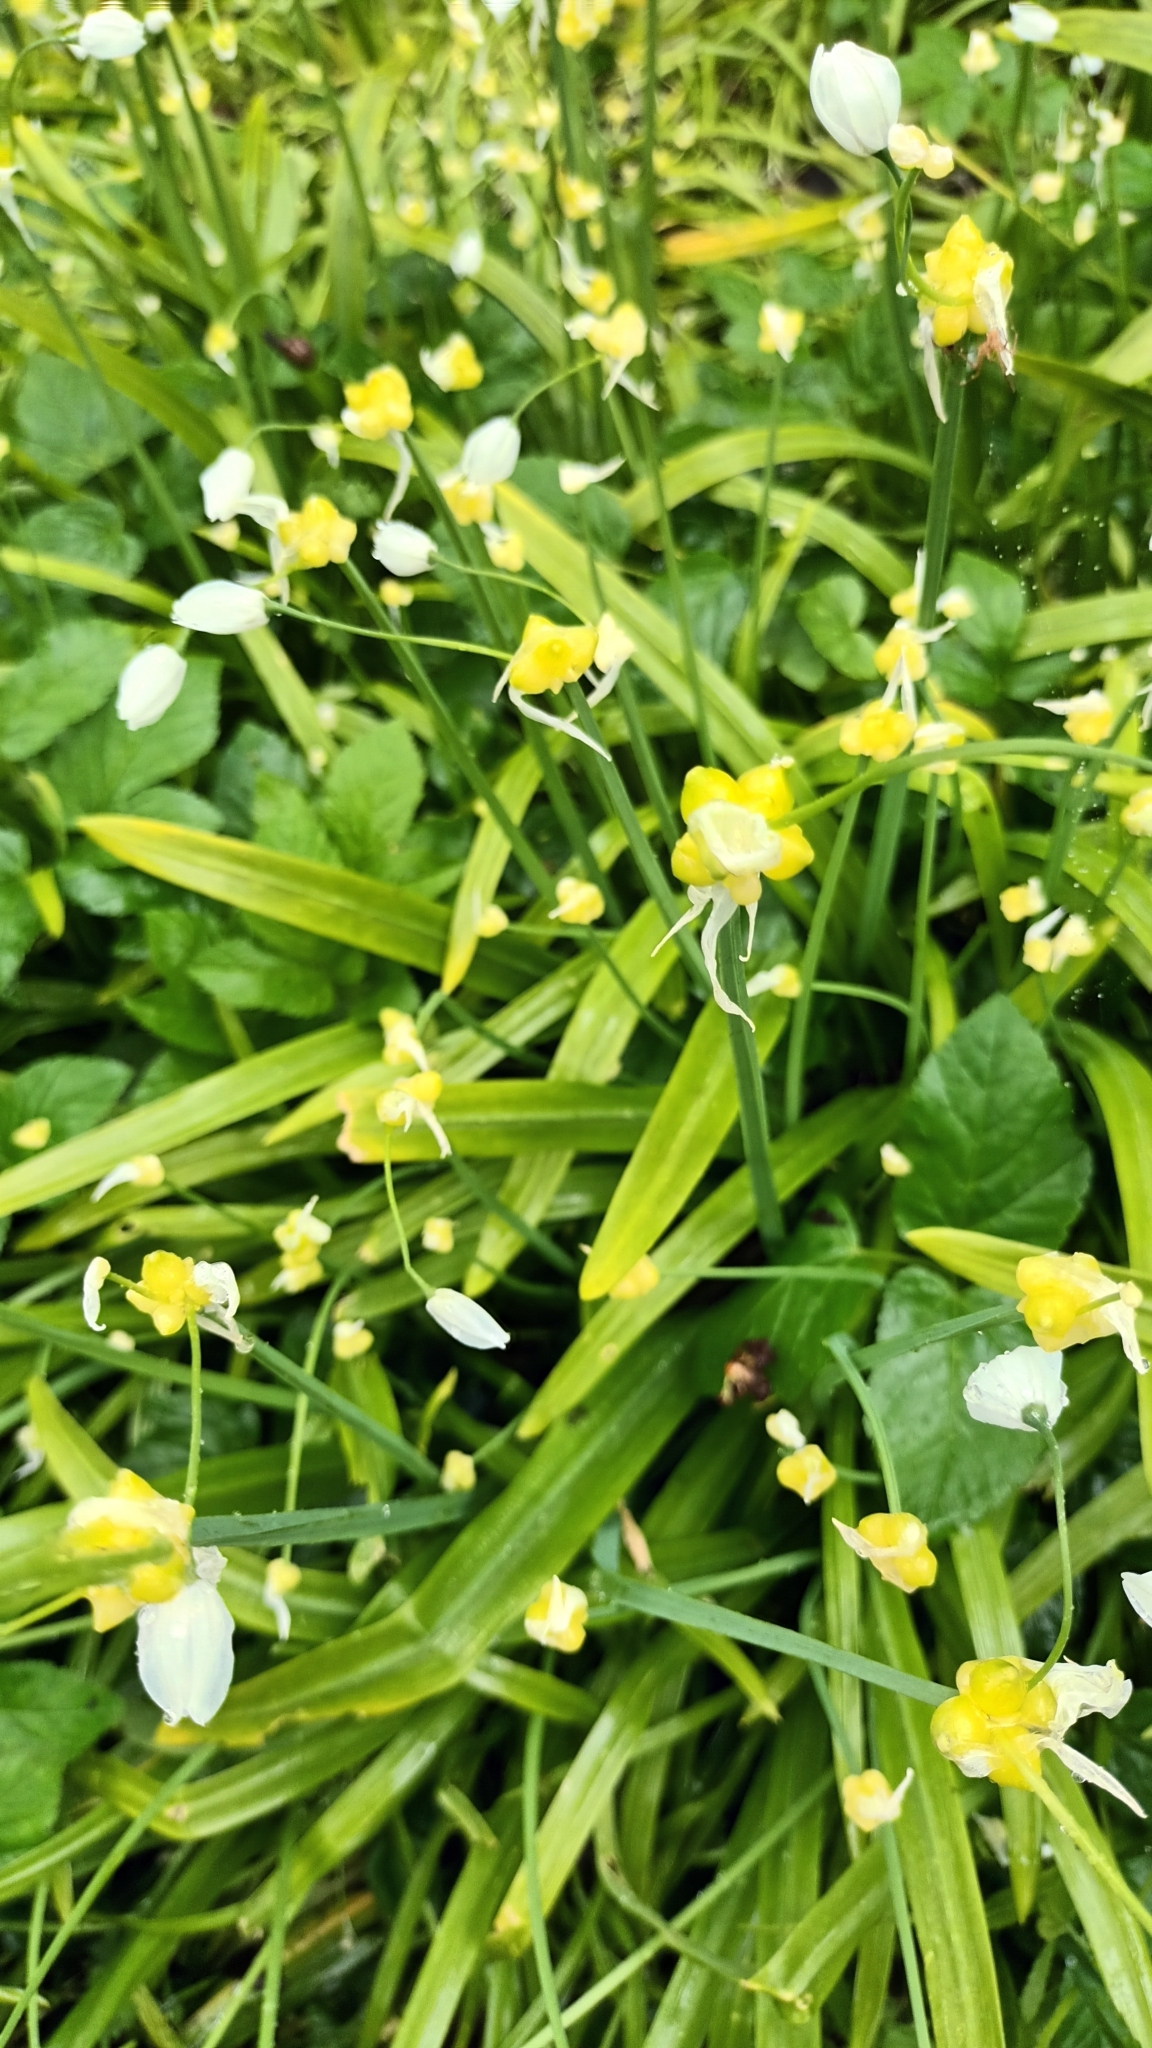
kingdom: Plantae
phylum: Tracheophyta
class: Liliopsida
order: Asparagales
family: Amaryllidaceae
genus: Allium
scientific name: Allium paradoxum
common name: Few-flowered garlic
